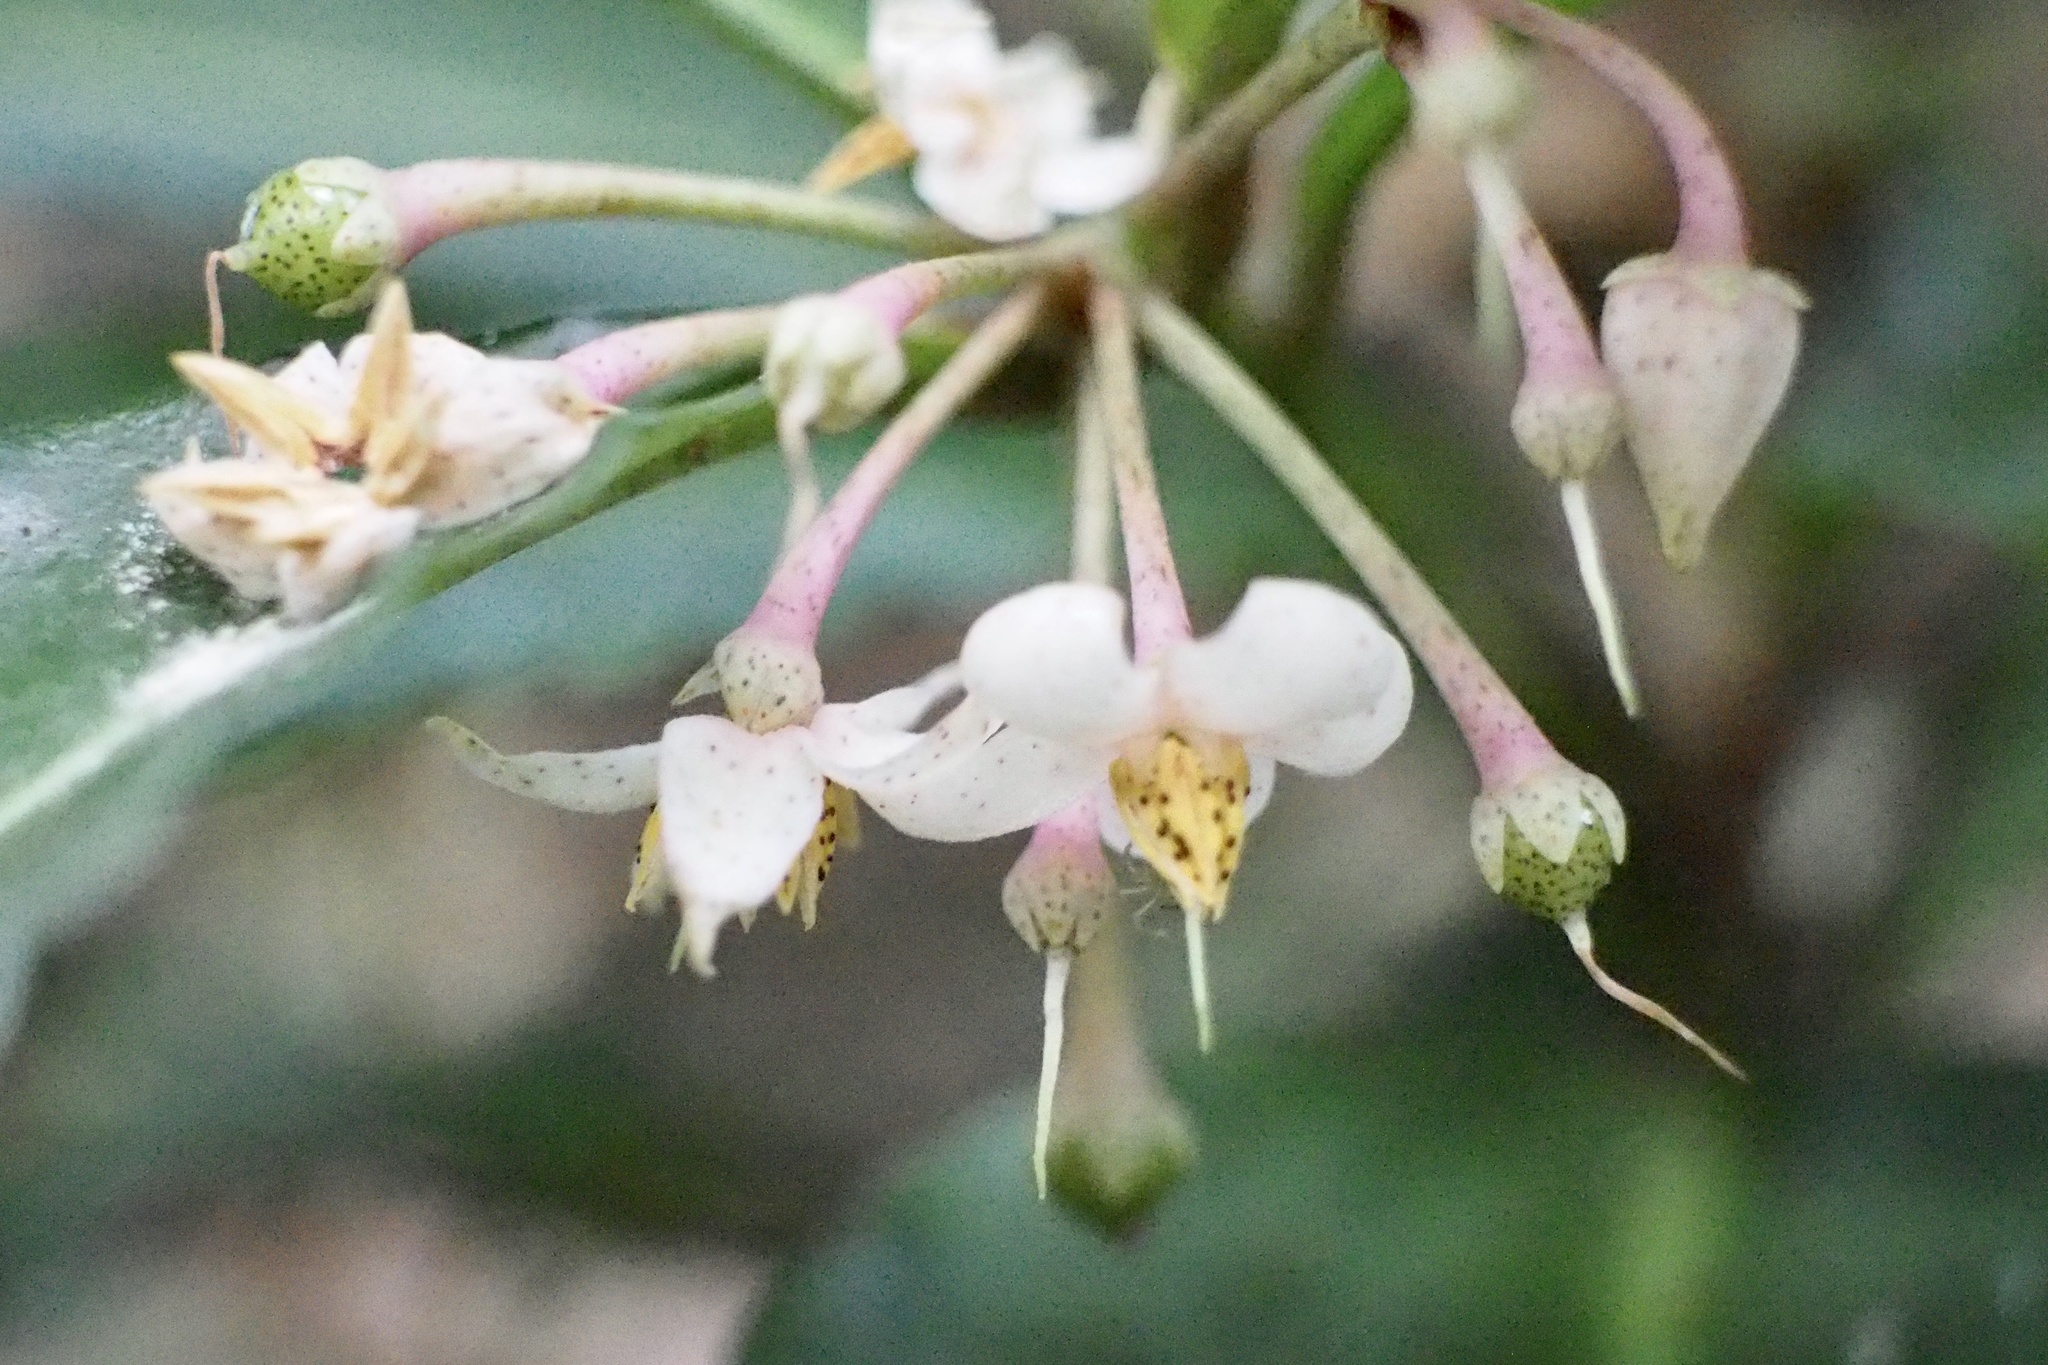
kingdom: Plantae
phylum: Tracheophyta
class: Magnoliopsida
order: Ericales
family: Primulaceae
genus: Ardisia
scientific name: Ardisia crenata
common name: Hen's eyes
